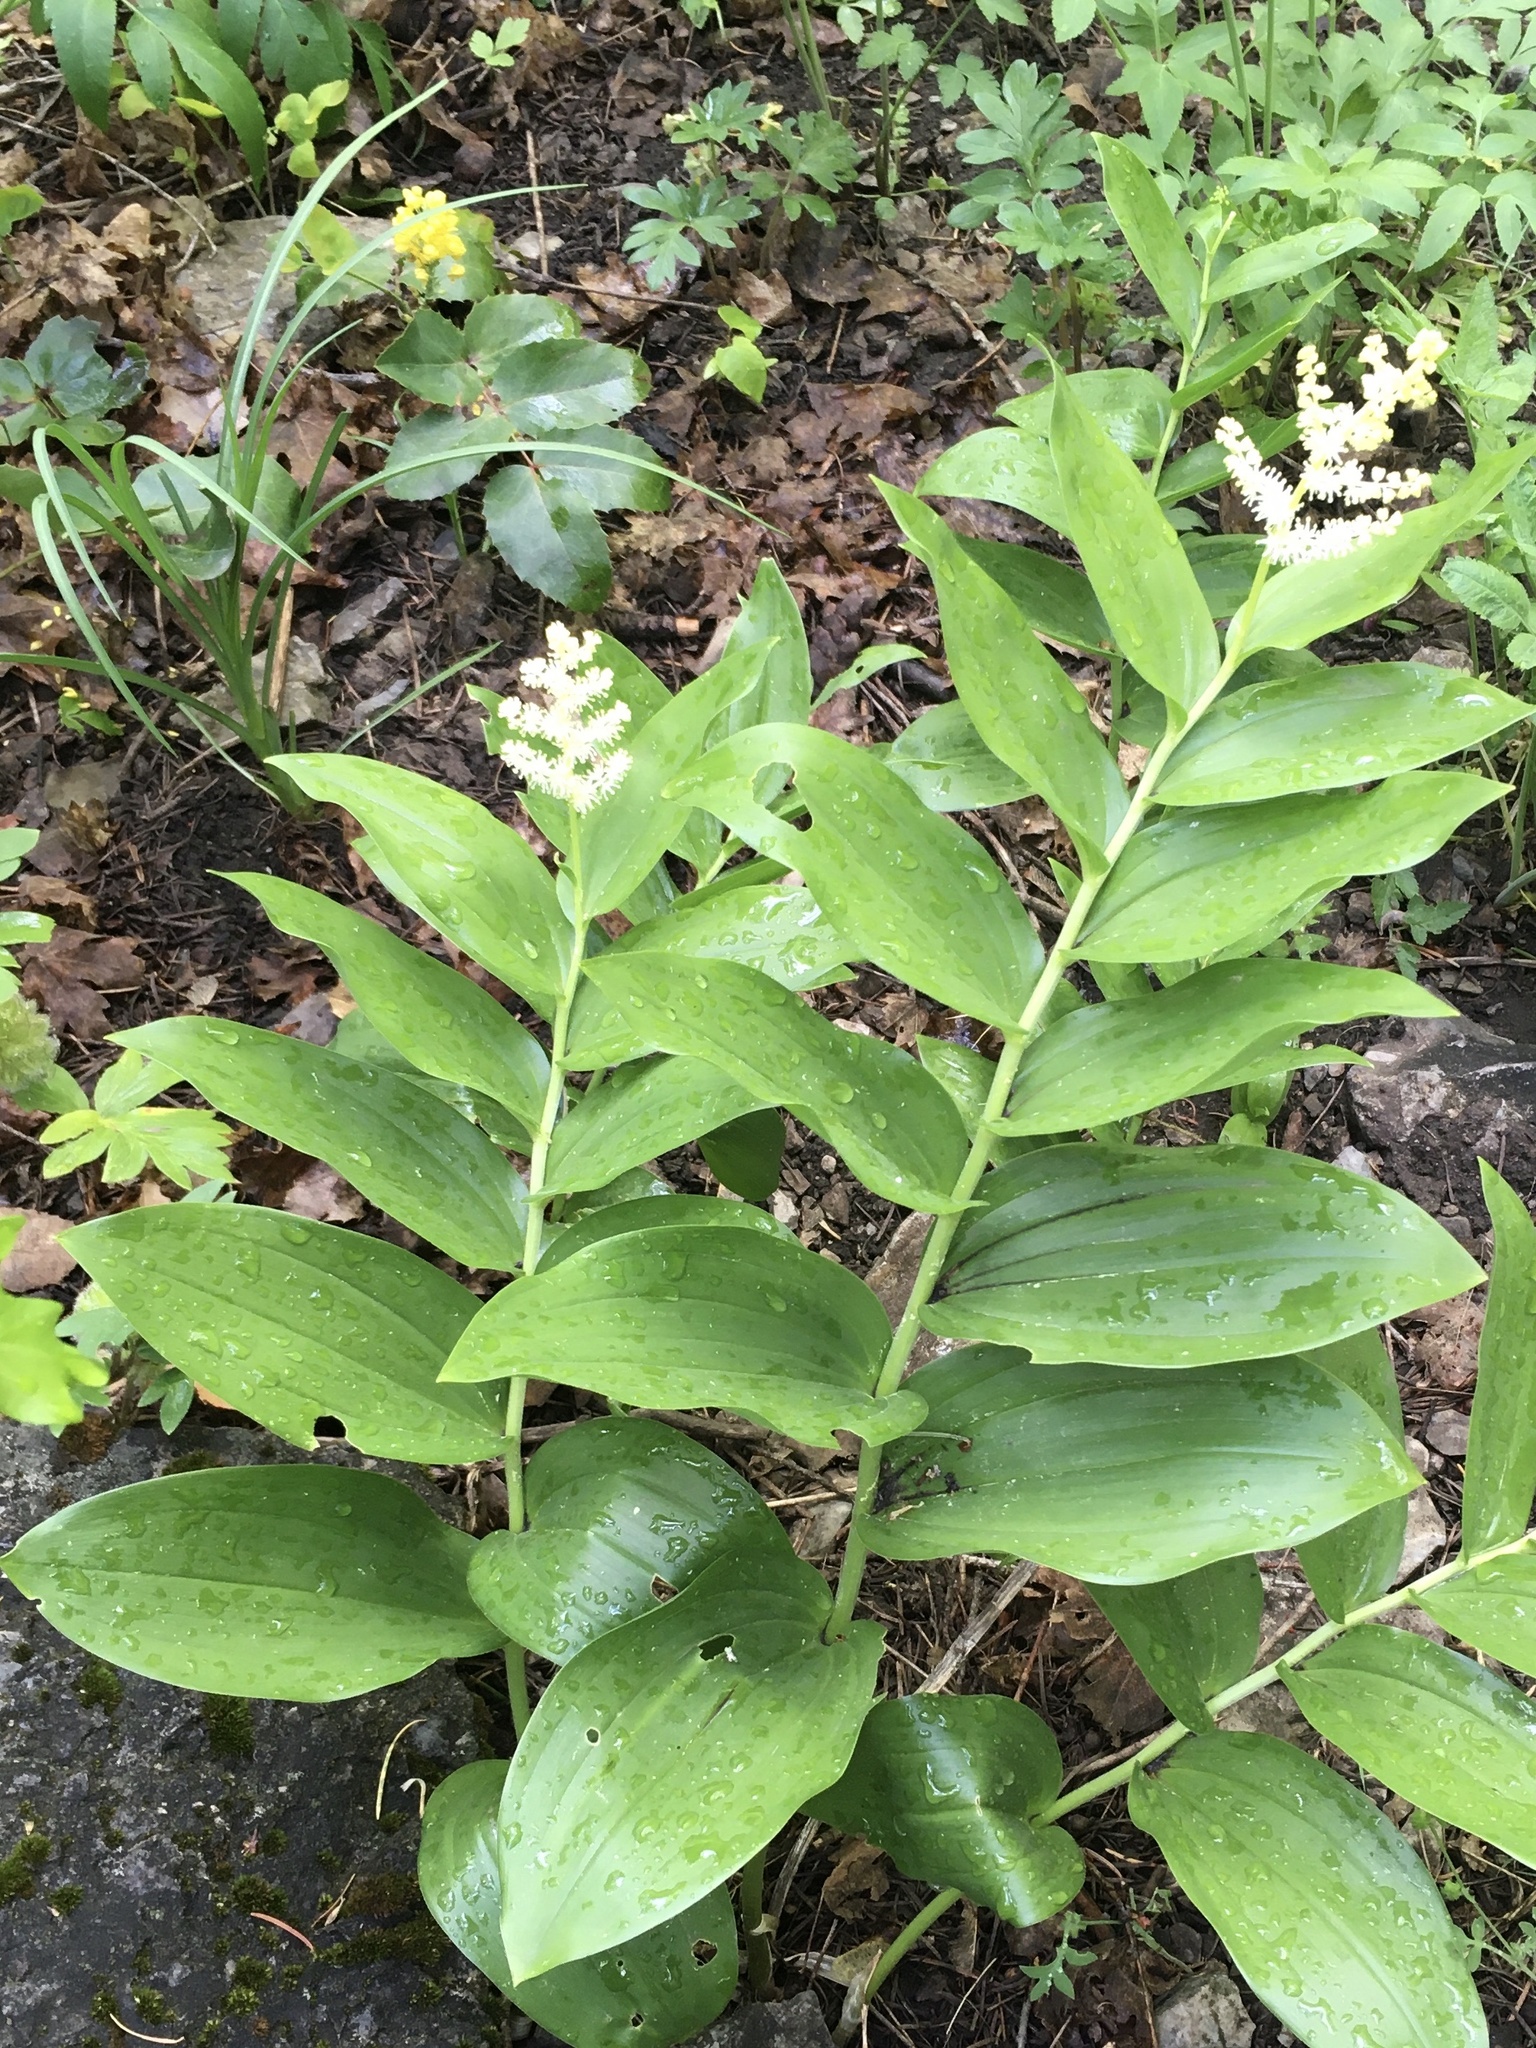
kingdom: Plantae
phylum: Tracheophyta
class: Liliopsida
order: Asparagales
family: Asparagaceae
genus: Maianthemum
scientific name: Maianthemum racemosum
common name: False spikenard
